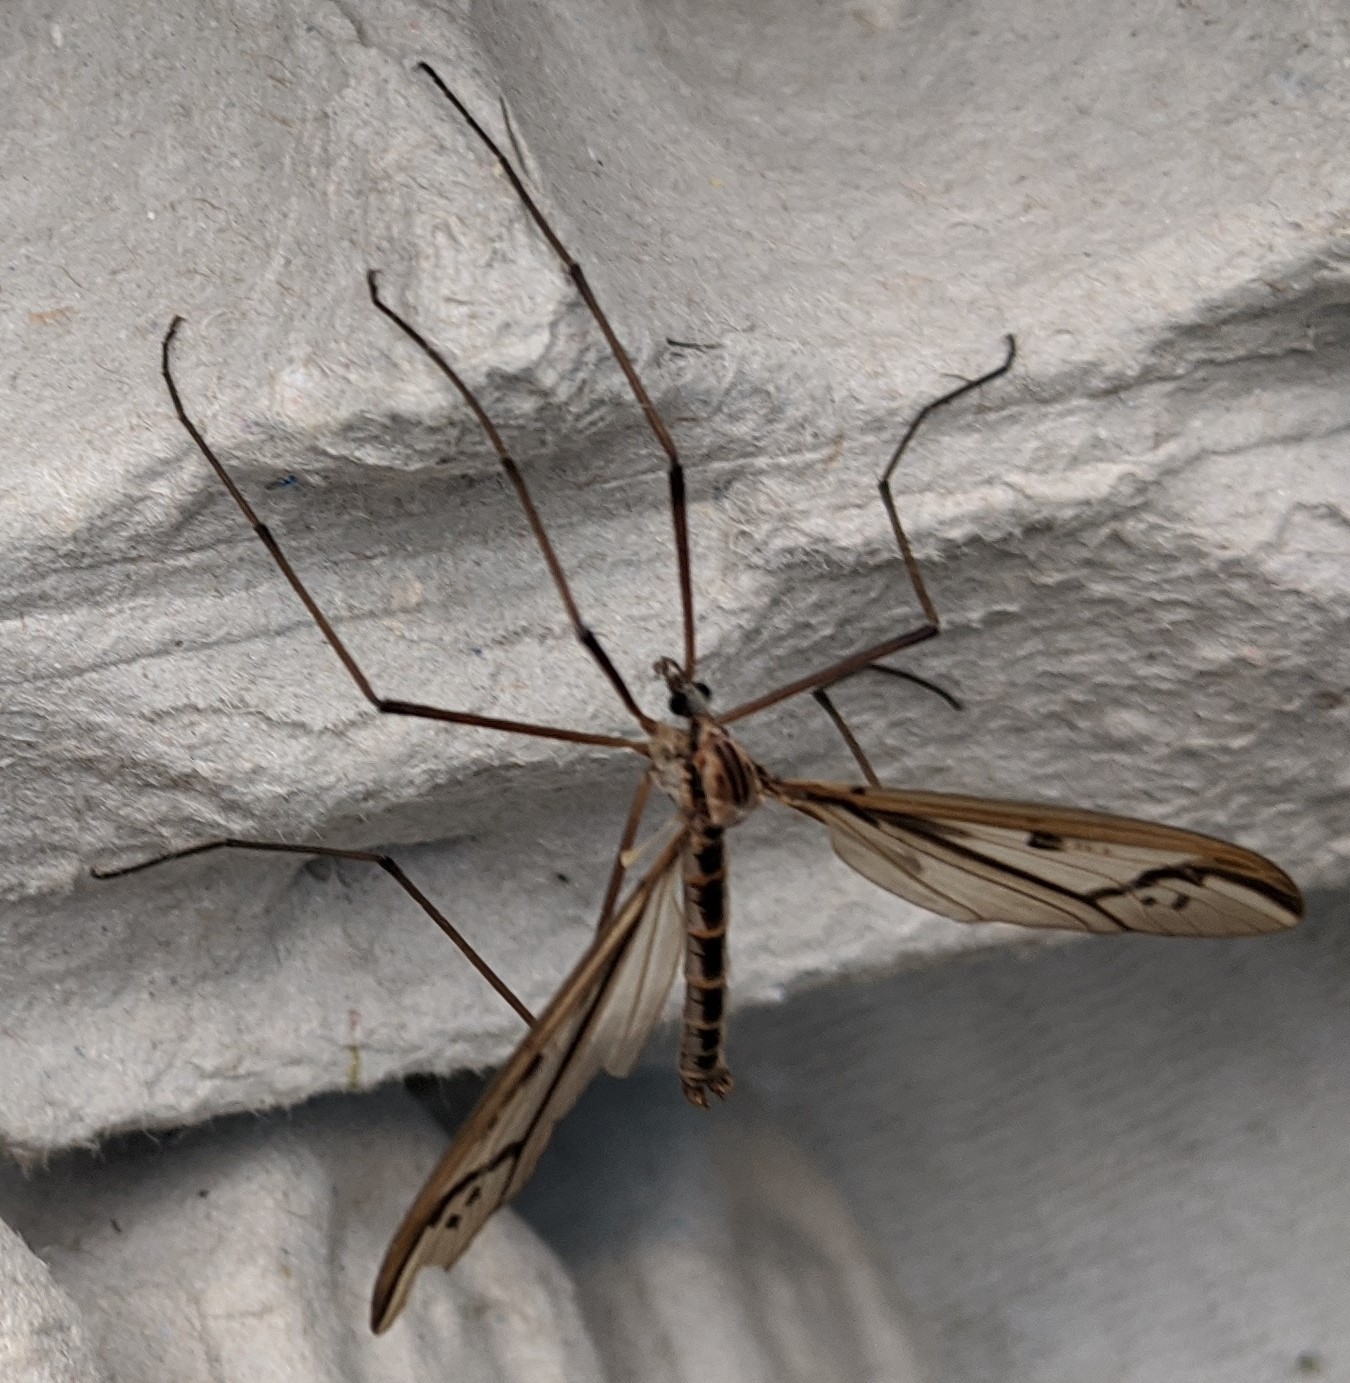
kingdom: Animalia
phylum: Arthropoda
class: Insecta
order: Diptera
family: Pediciidae
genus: Pedicia
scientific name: Pedicia procteriana
